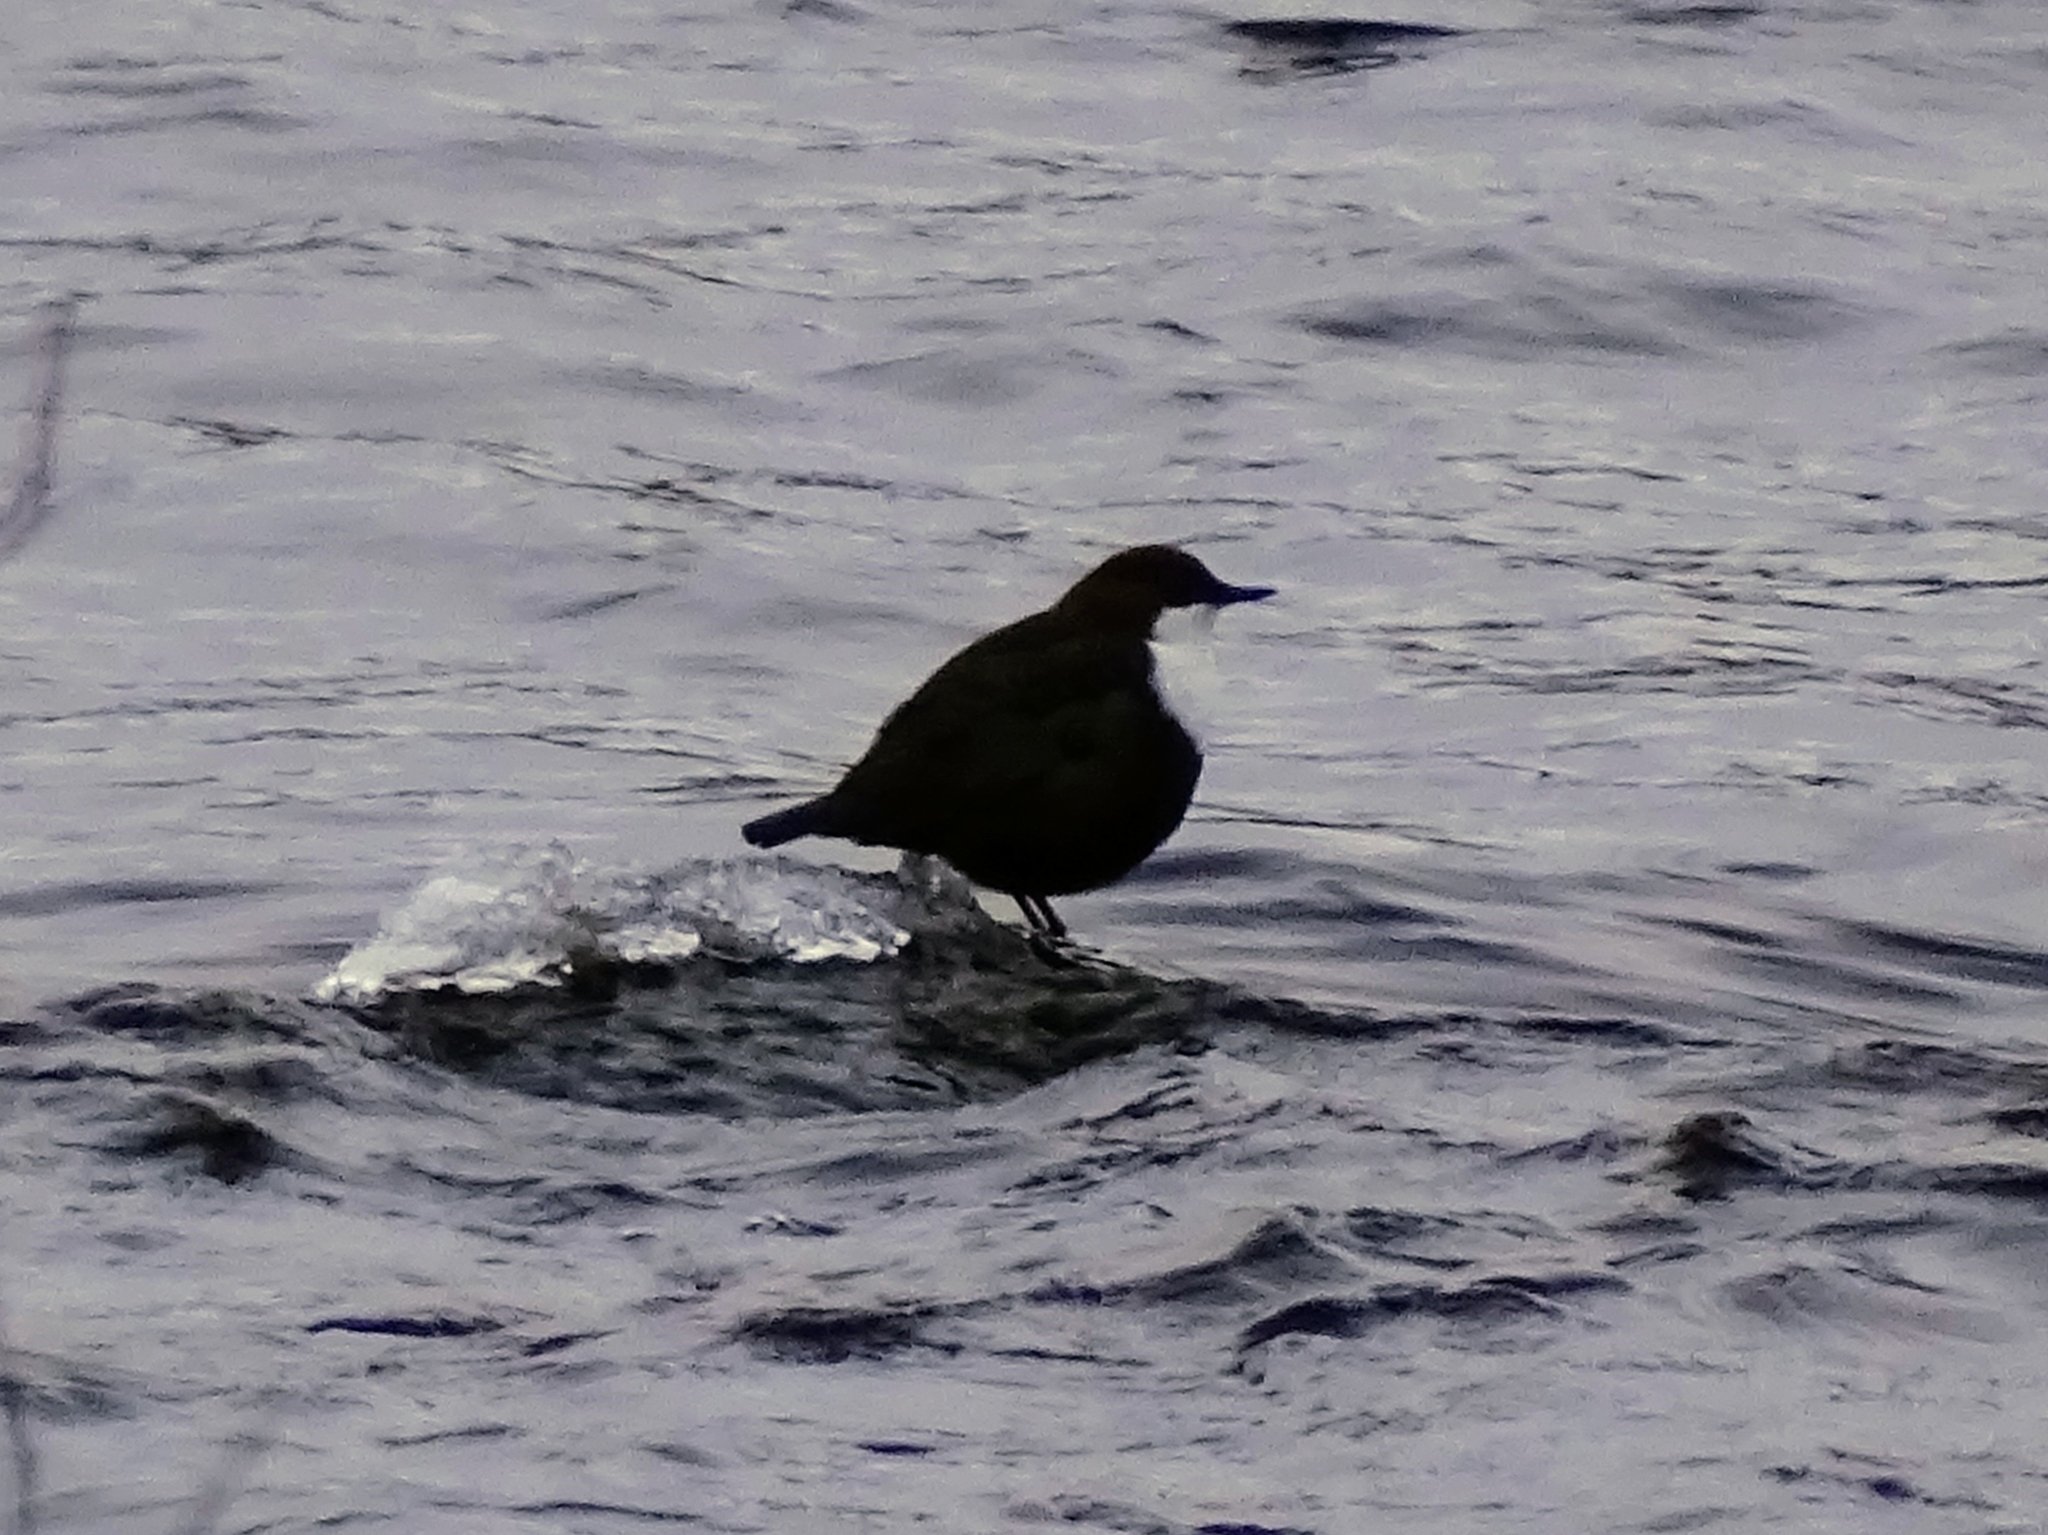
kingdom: Animalia
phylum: Chordata
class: Aves
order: Passeriformes
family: Cinclidae
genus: Cinclus
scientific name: Cinclus cinclus
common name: White-throated dipper
